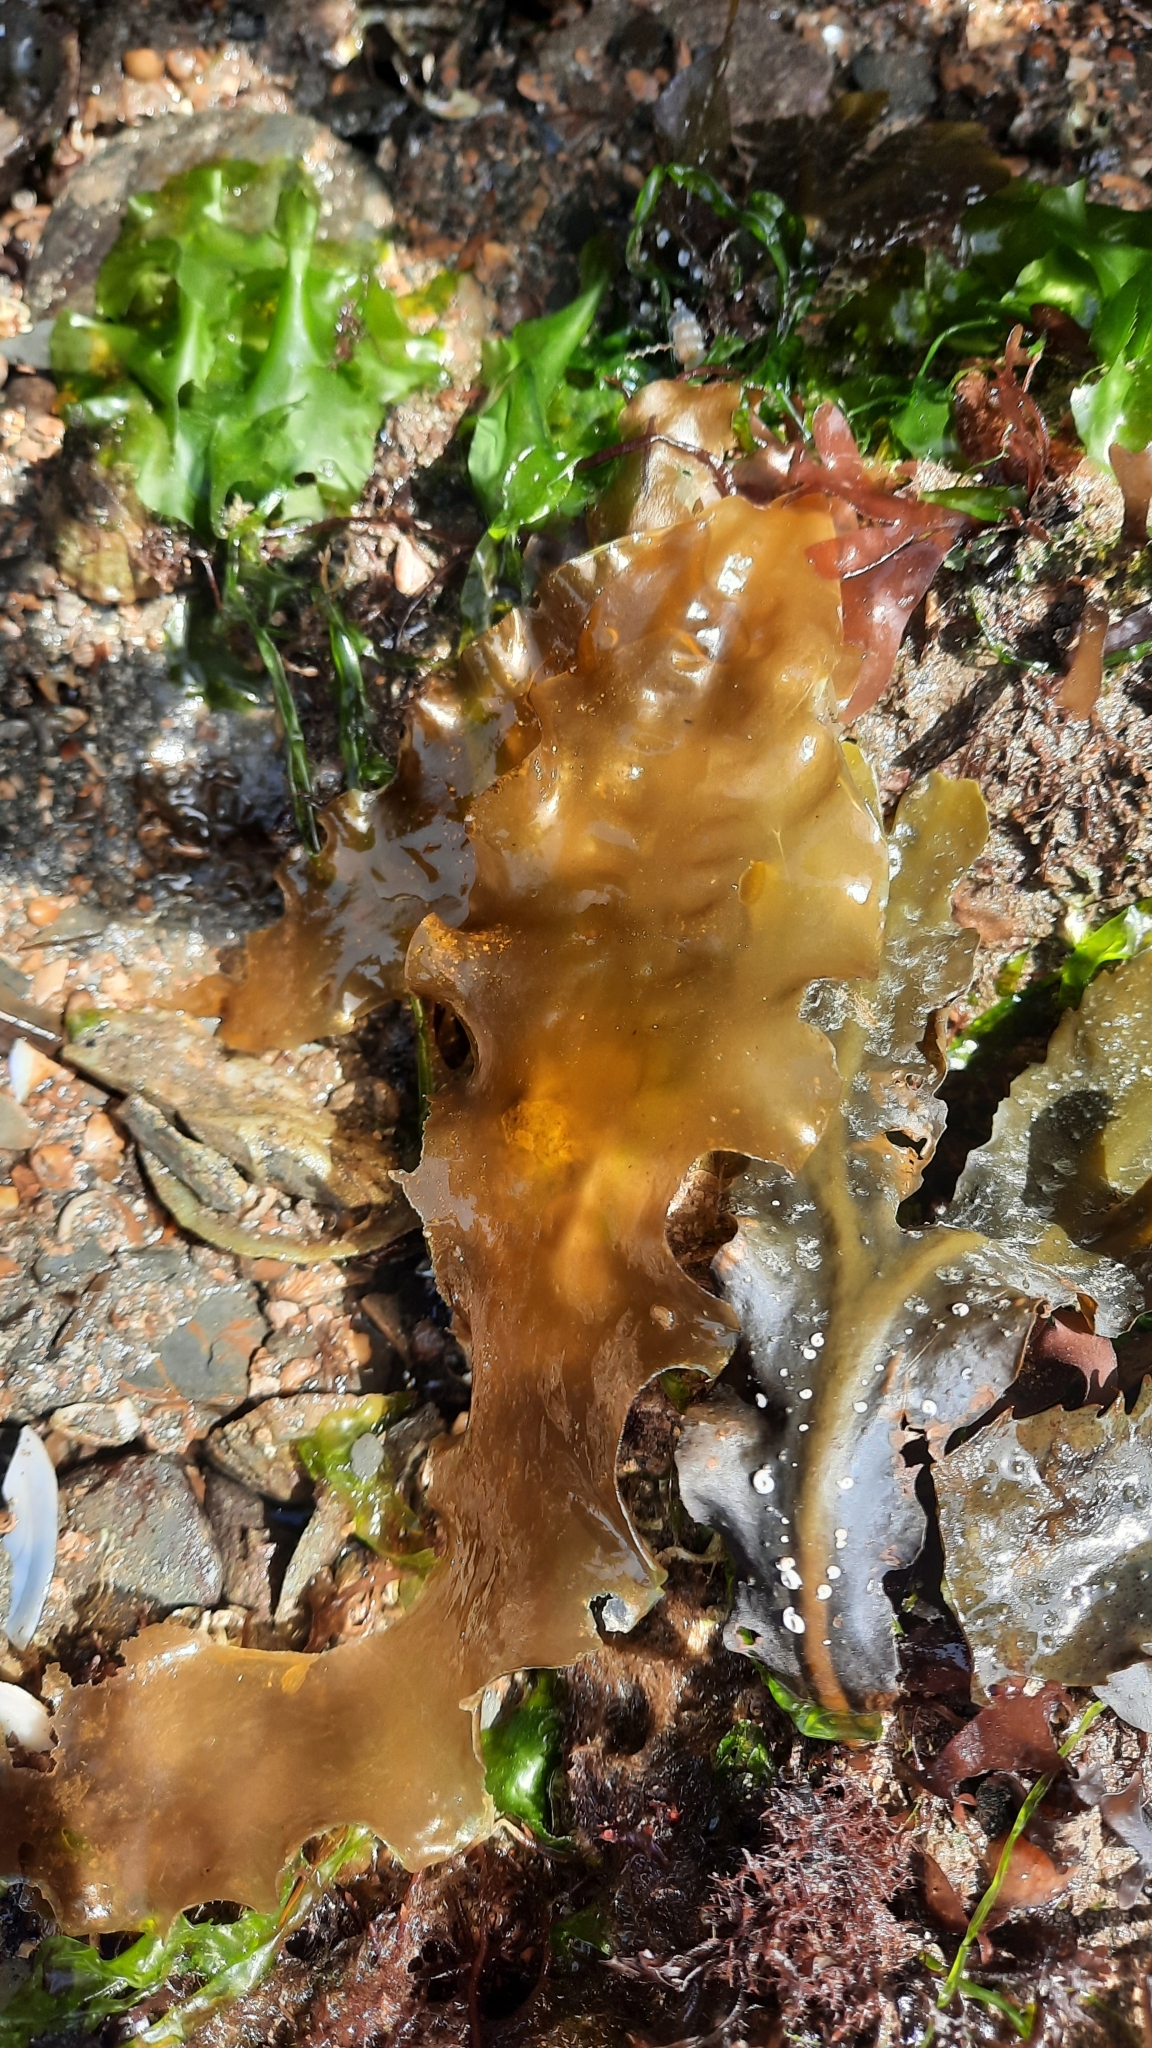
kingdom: Chromista
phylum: Ochrophyta
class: Phaeophyceae
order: Laminariales
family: Laminariaceae
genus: Saccharina
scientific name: Saccharina latissima
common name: Poor man's weather glass
